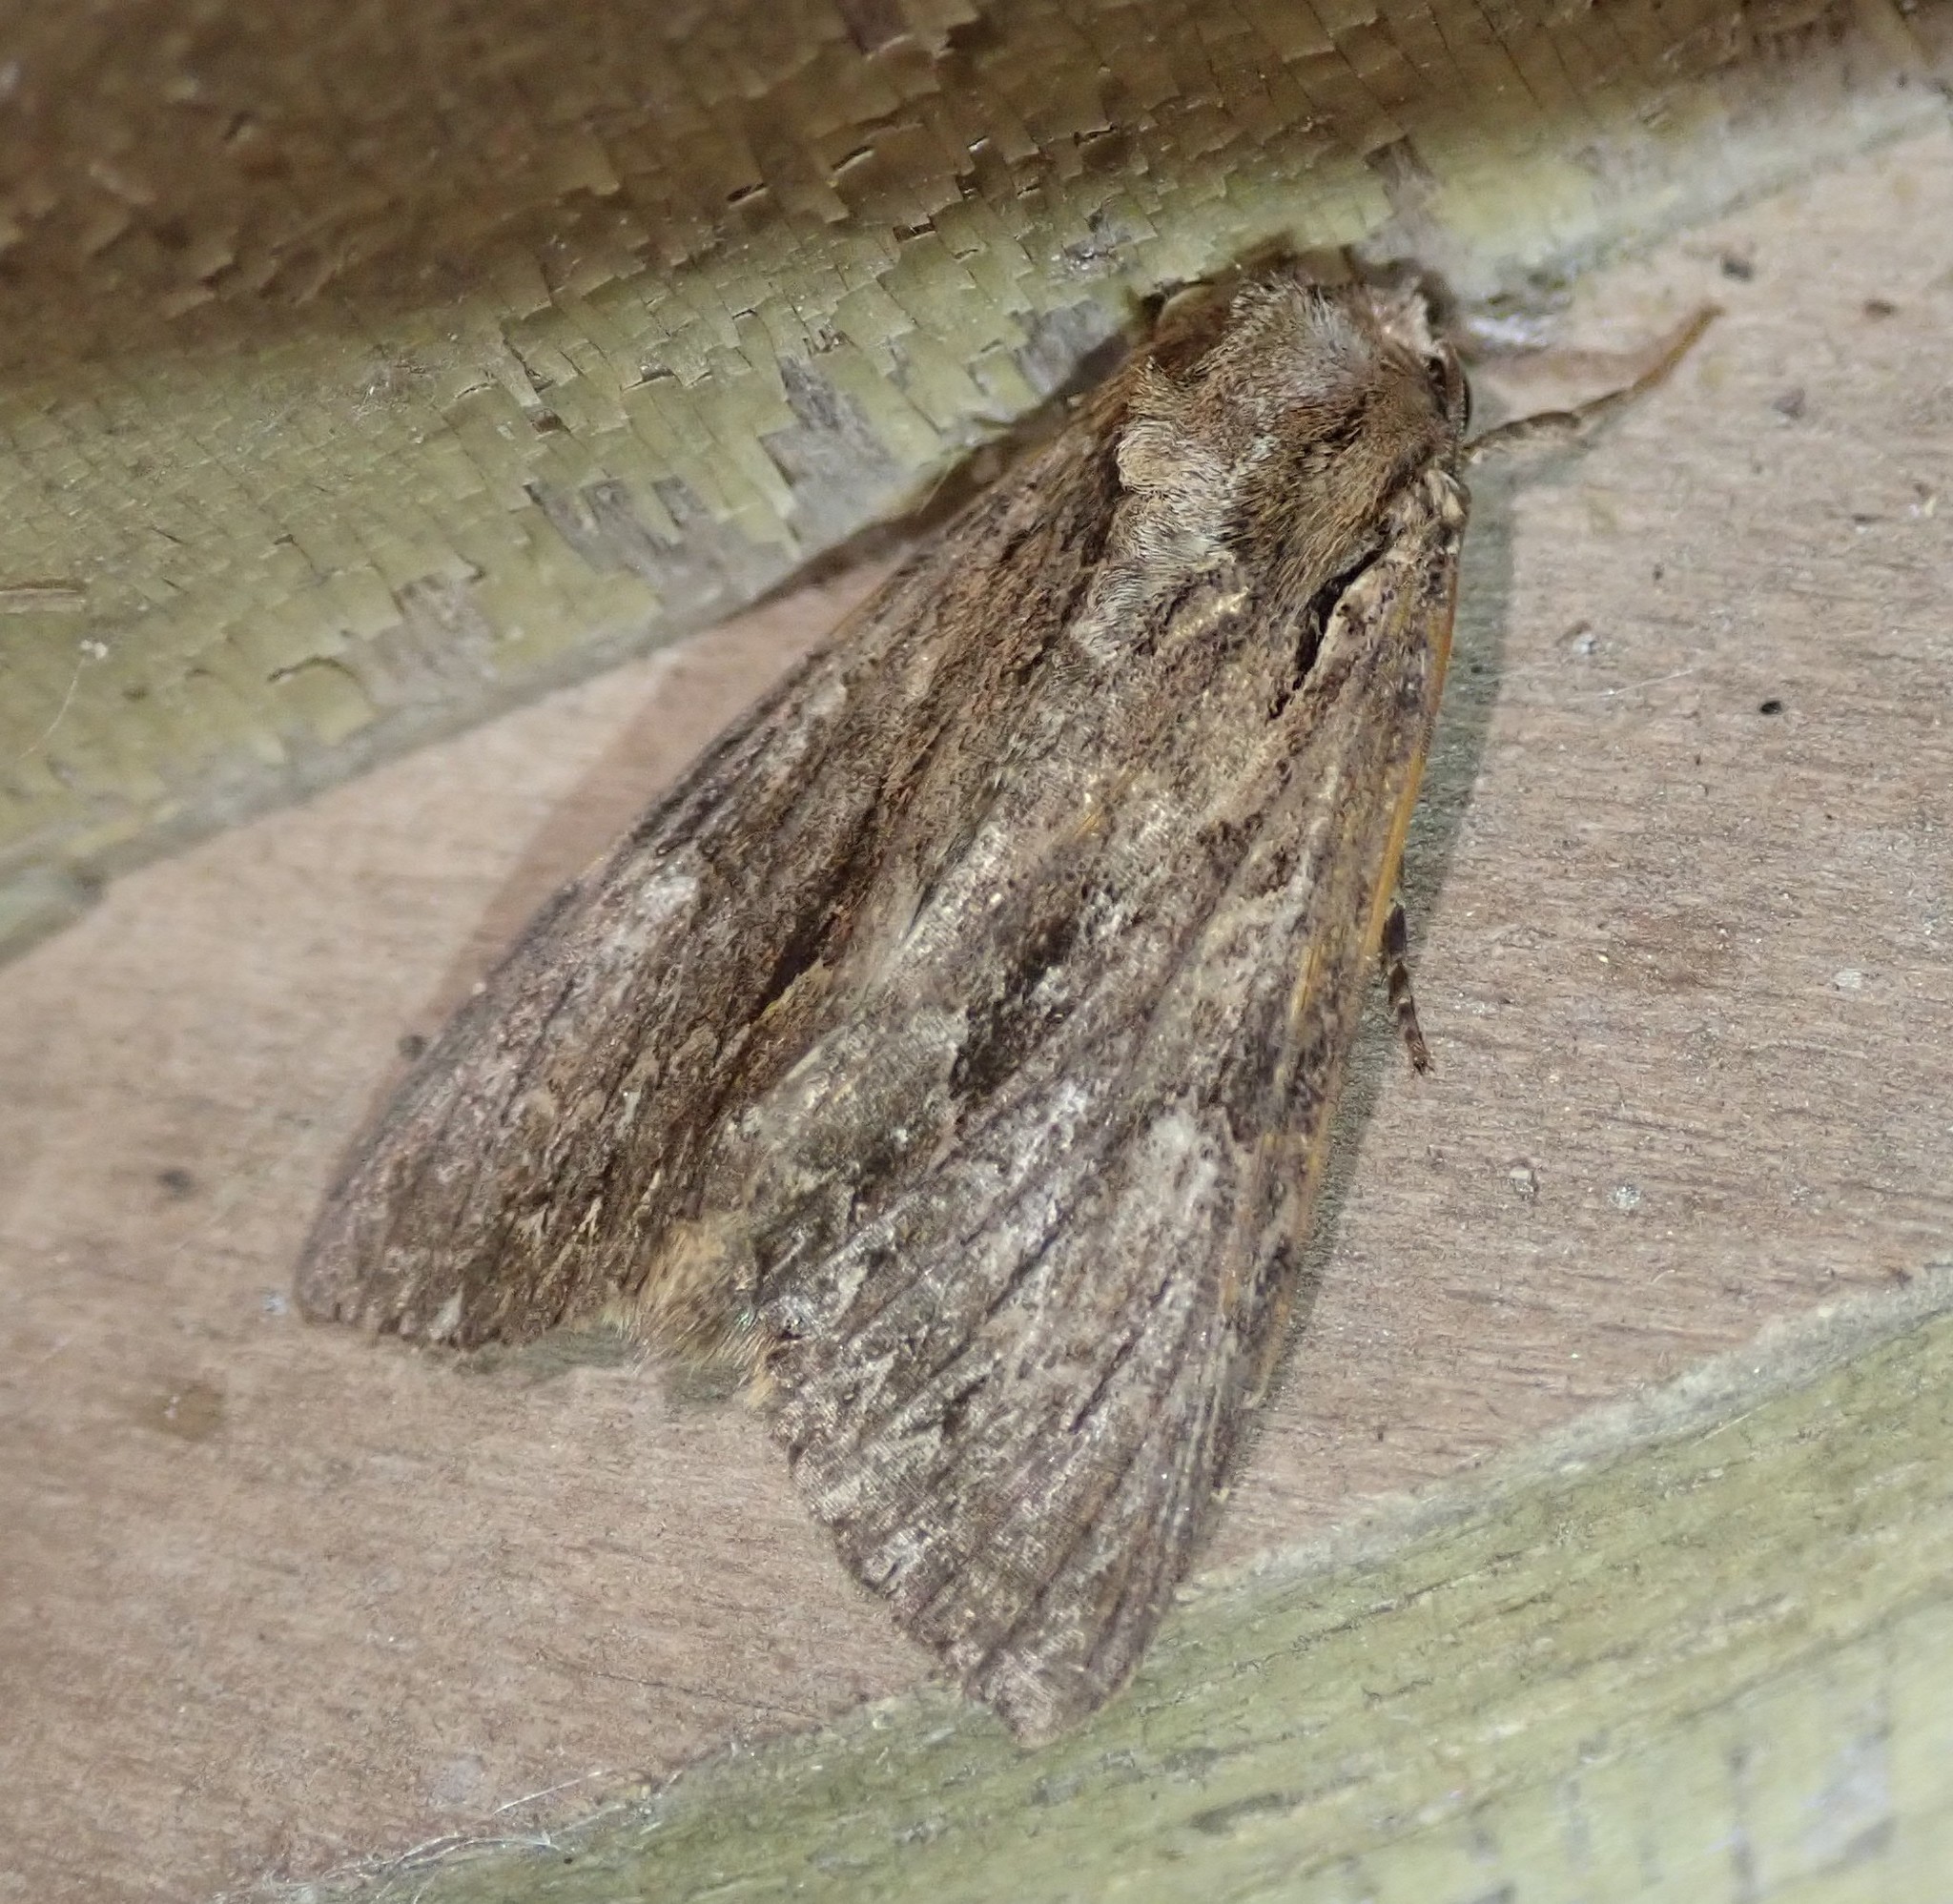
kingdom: Animalia
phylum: Arthropoda
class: Insecta
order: Lepidoptera
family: Noctuidae
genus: Apamea
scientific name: Apamea monoglypha
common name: Dark arches
